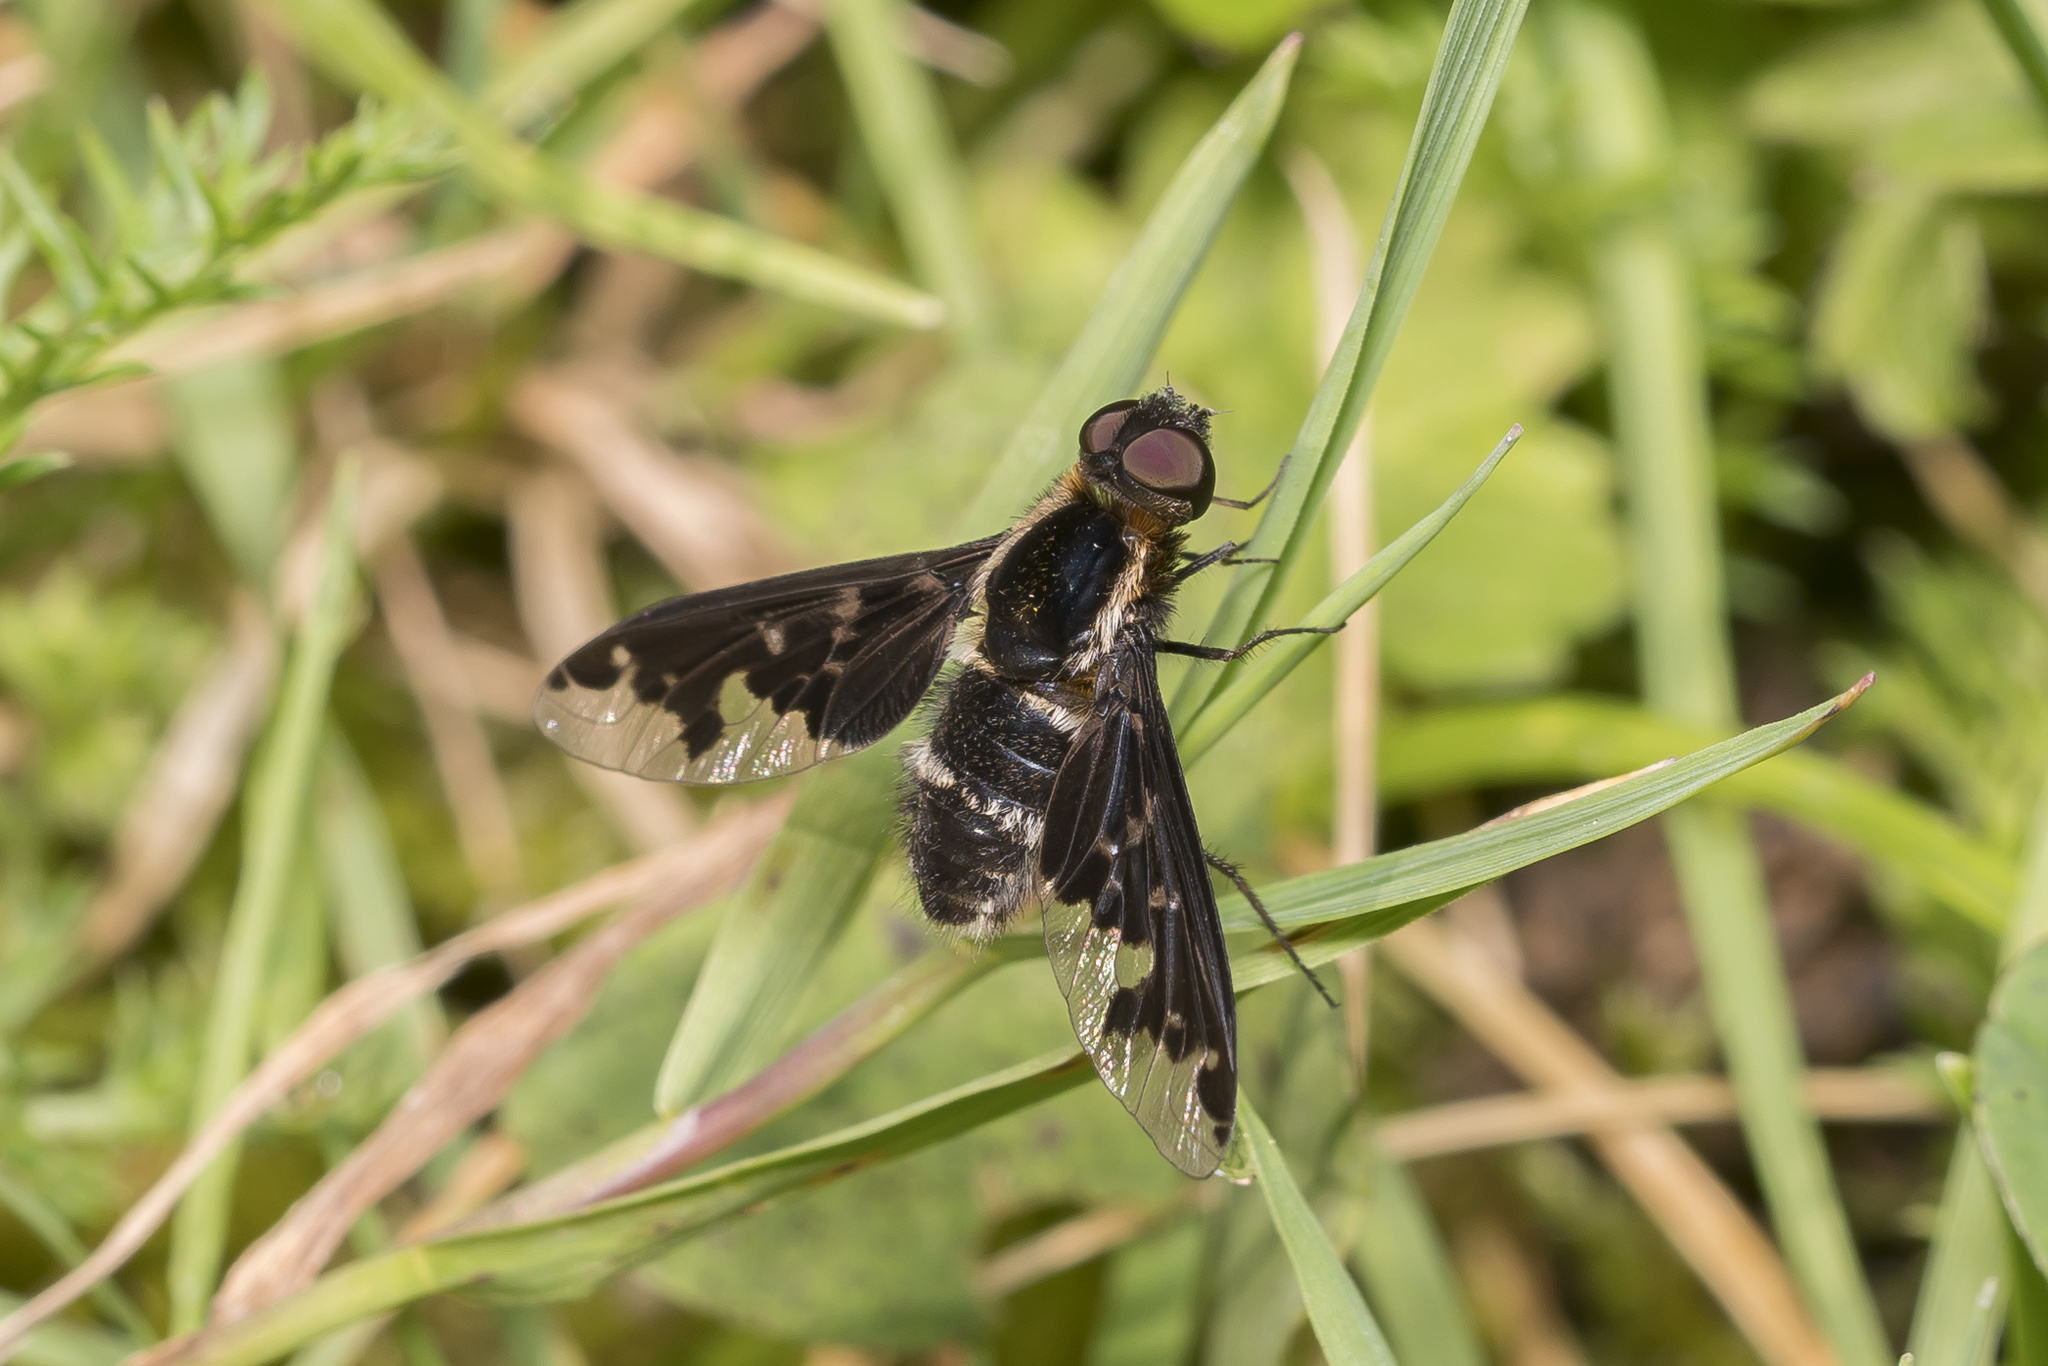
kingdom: Animalia
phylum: Arthropoda
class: Insecta
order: Diptera
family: Bombyliidae
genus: Hemipenthes
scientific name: Hemipenthes maura
